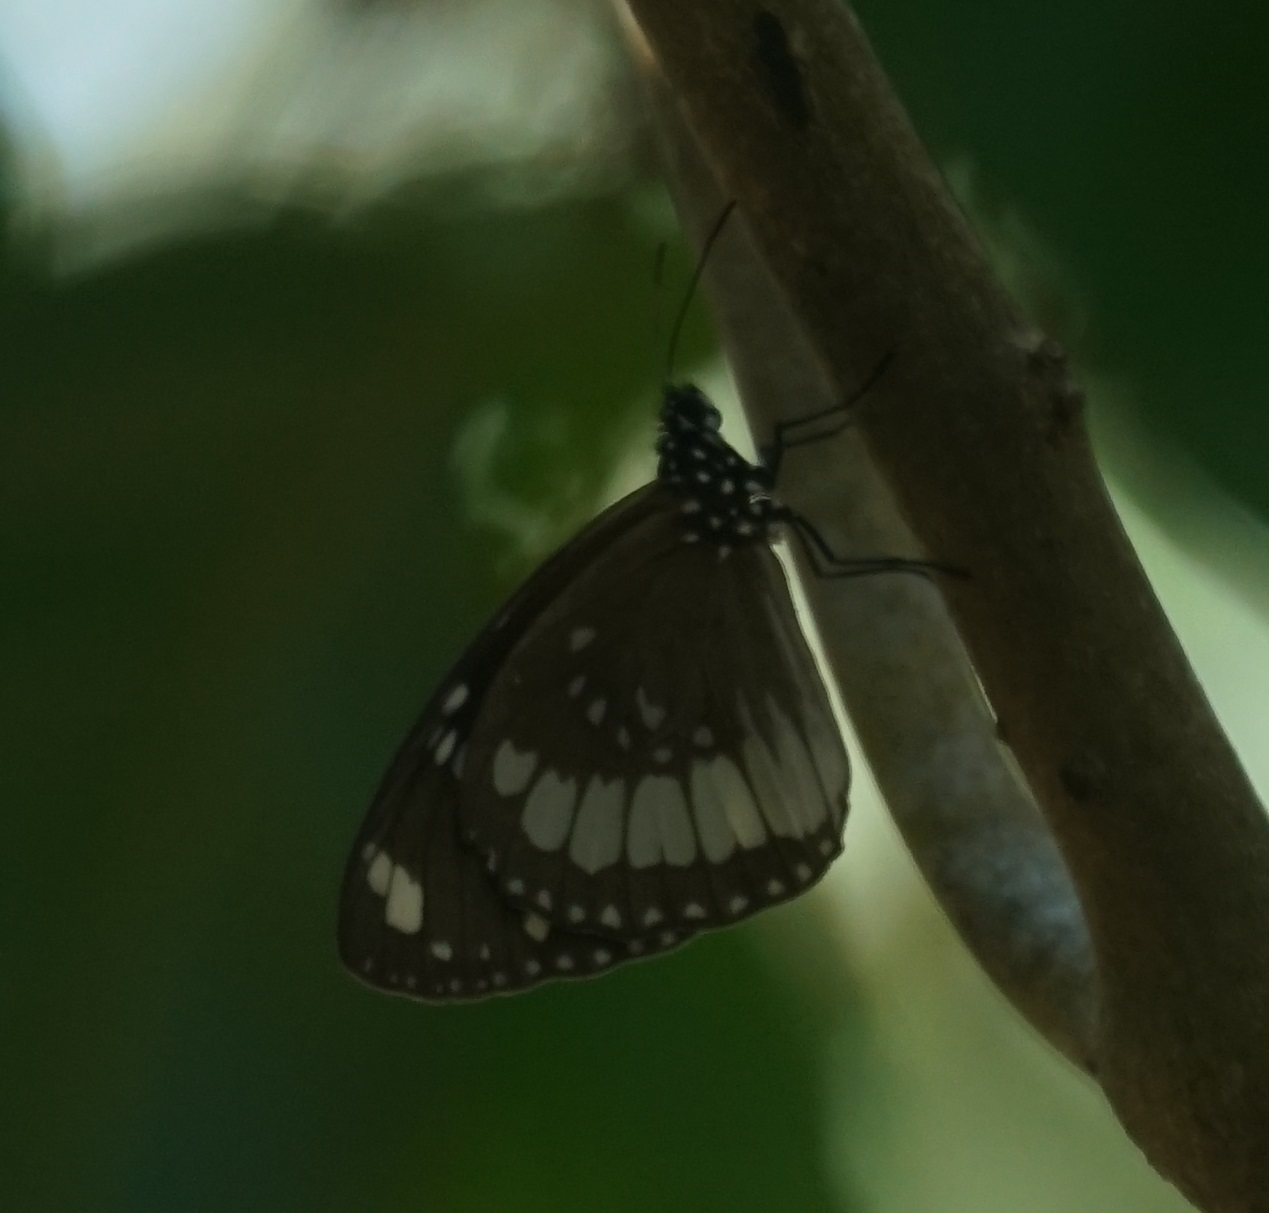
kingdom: Animalia
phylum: Arthropoda
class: Insecta
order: Lepidoptera
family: Nymphalidae
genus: Euploea
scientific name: Euploea sylvester
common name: Double-branded crow butterfly
